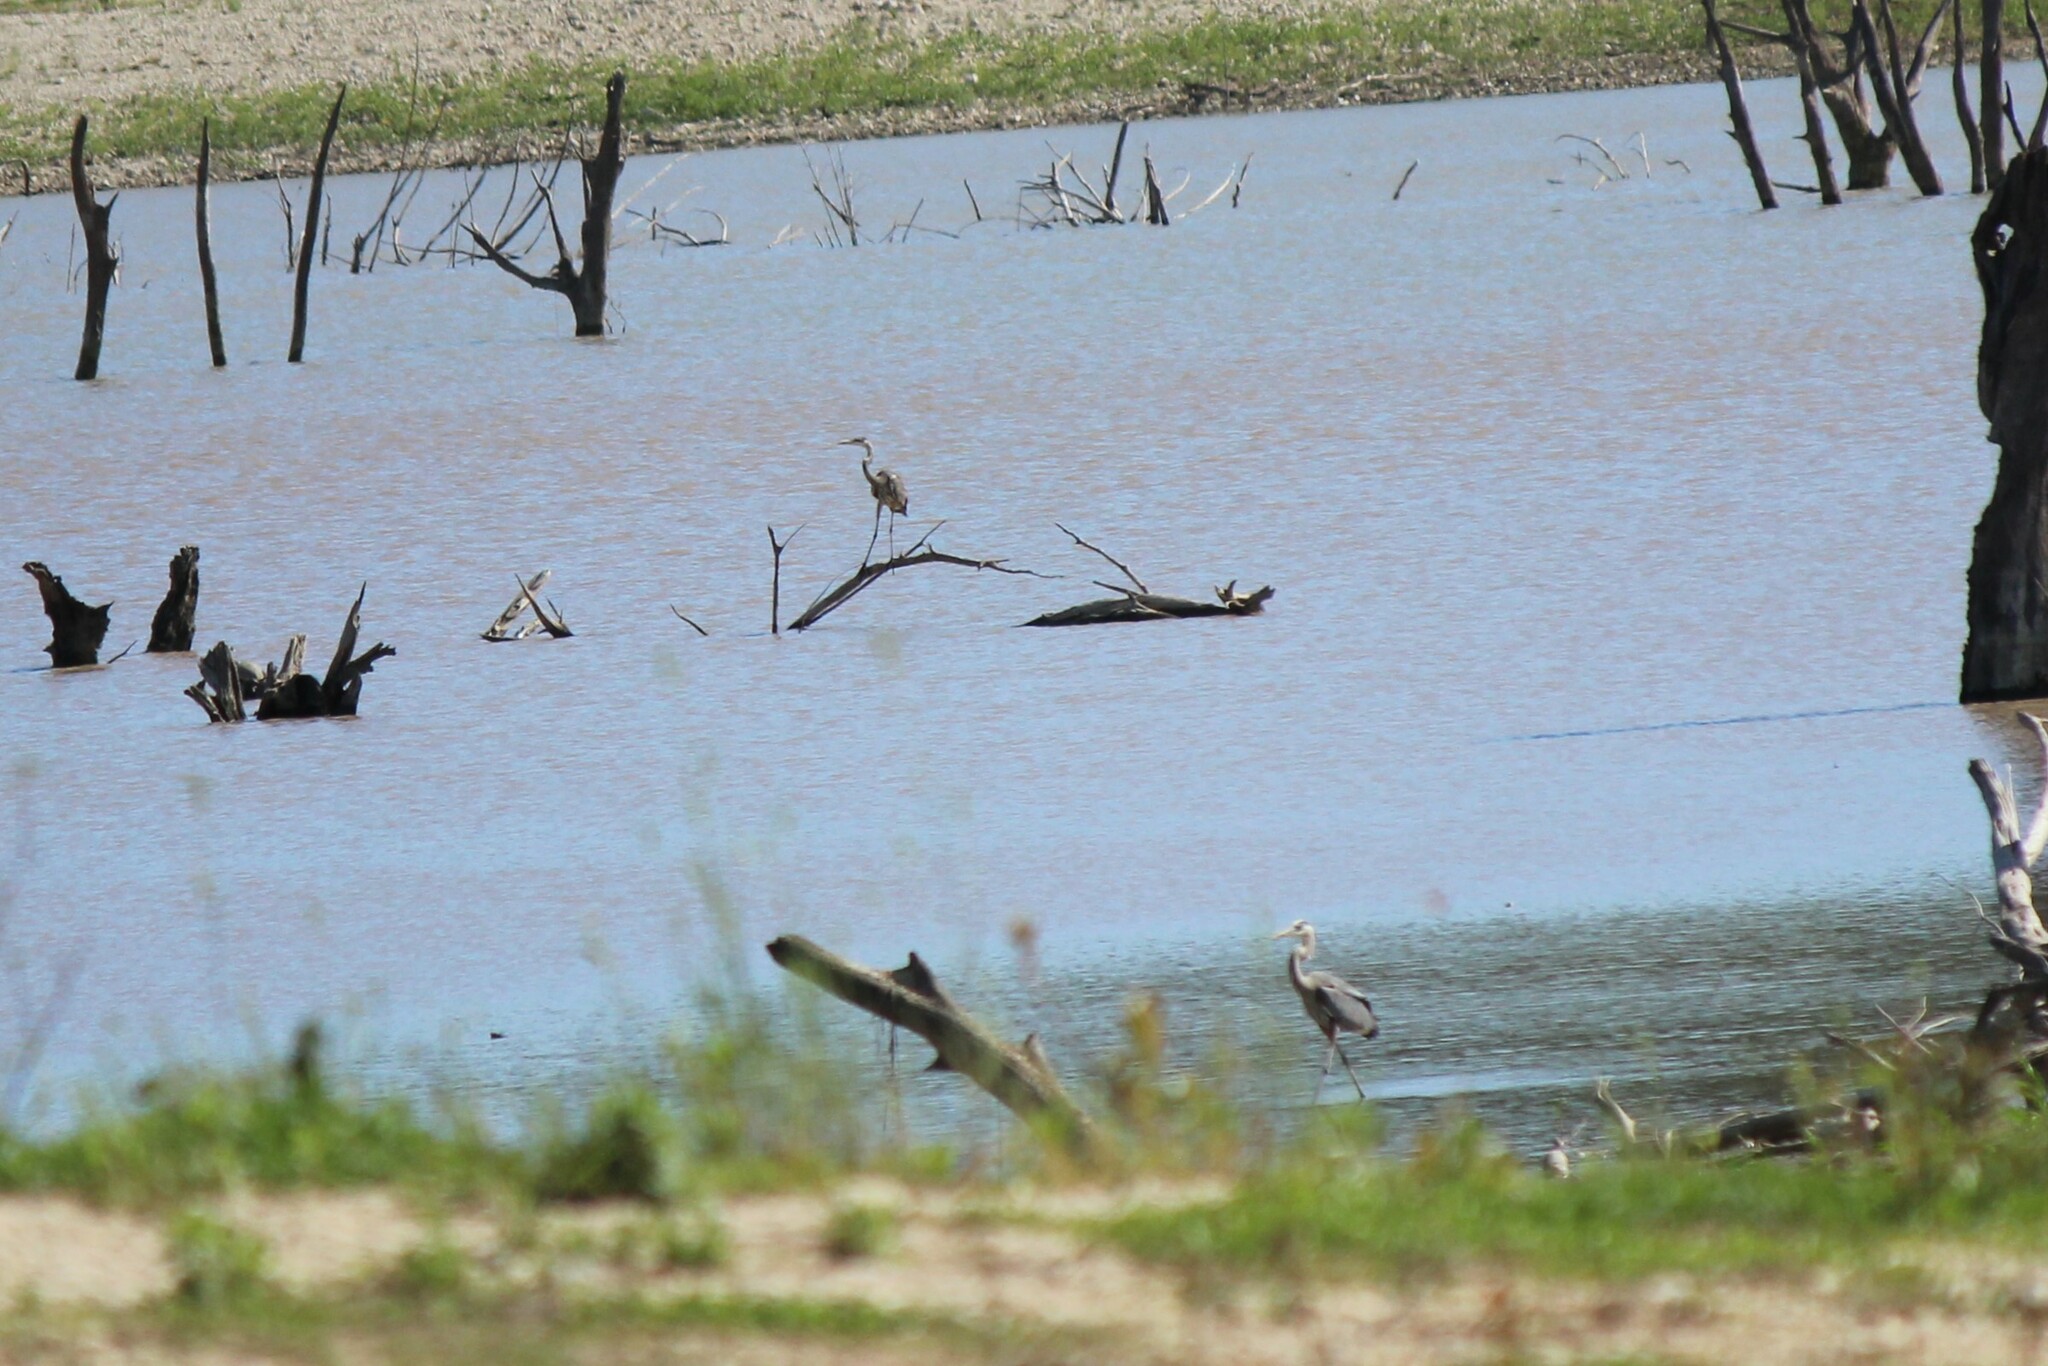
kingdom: Animalia
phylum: Chordata
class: Aves
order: Pelecaniformes
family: Ardeidae
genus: Ardea
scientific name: Ardea herodias
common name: Great blue heron
